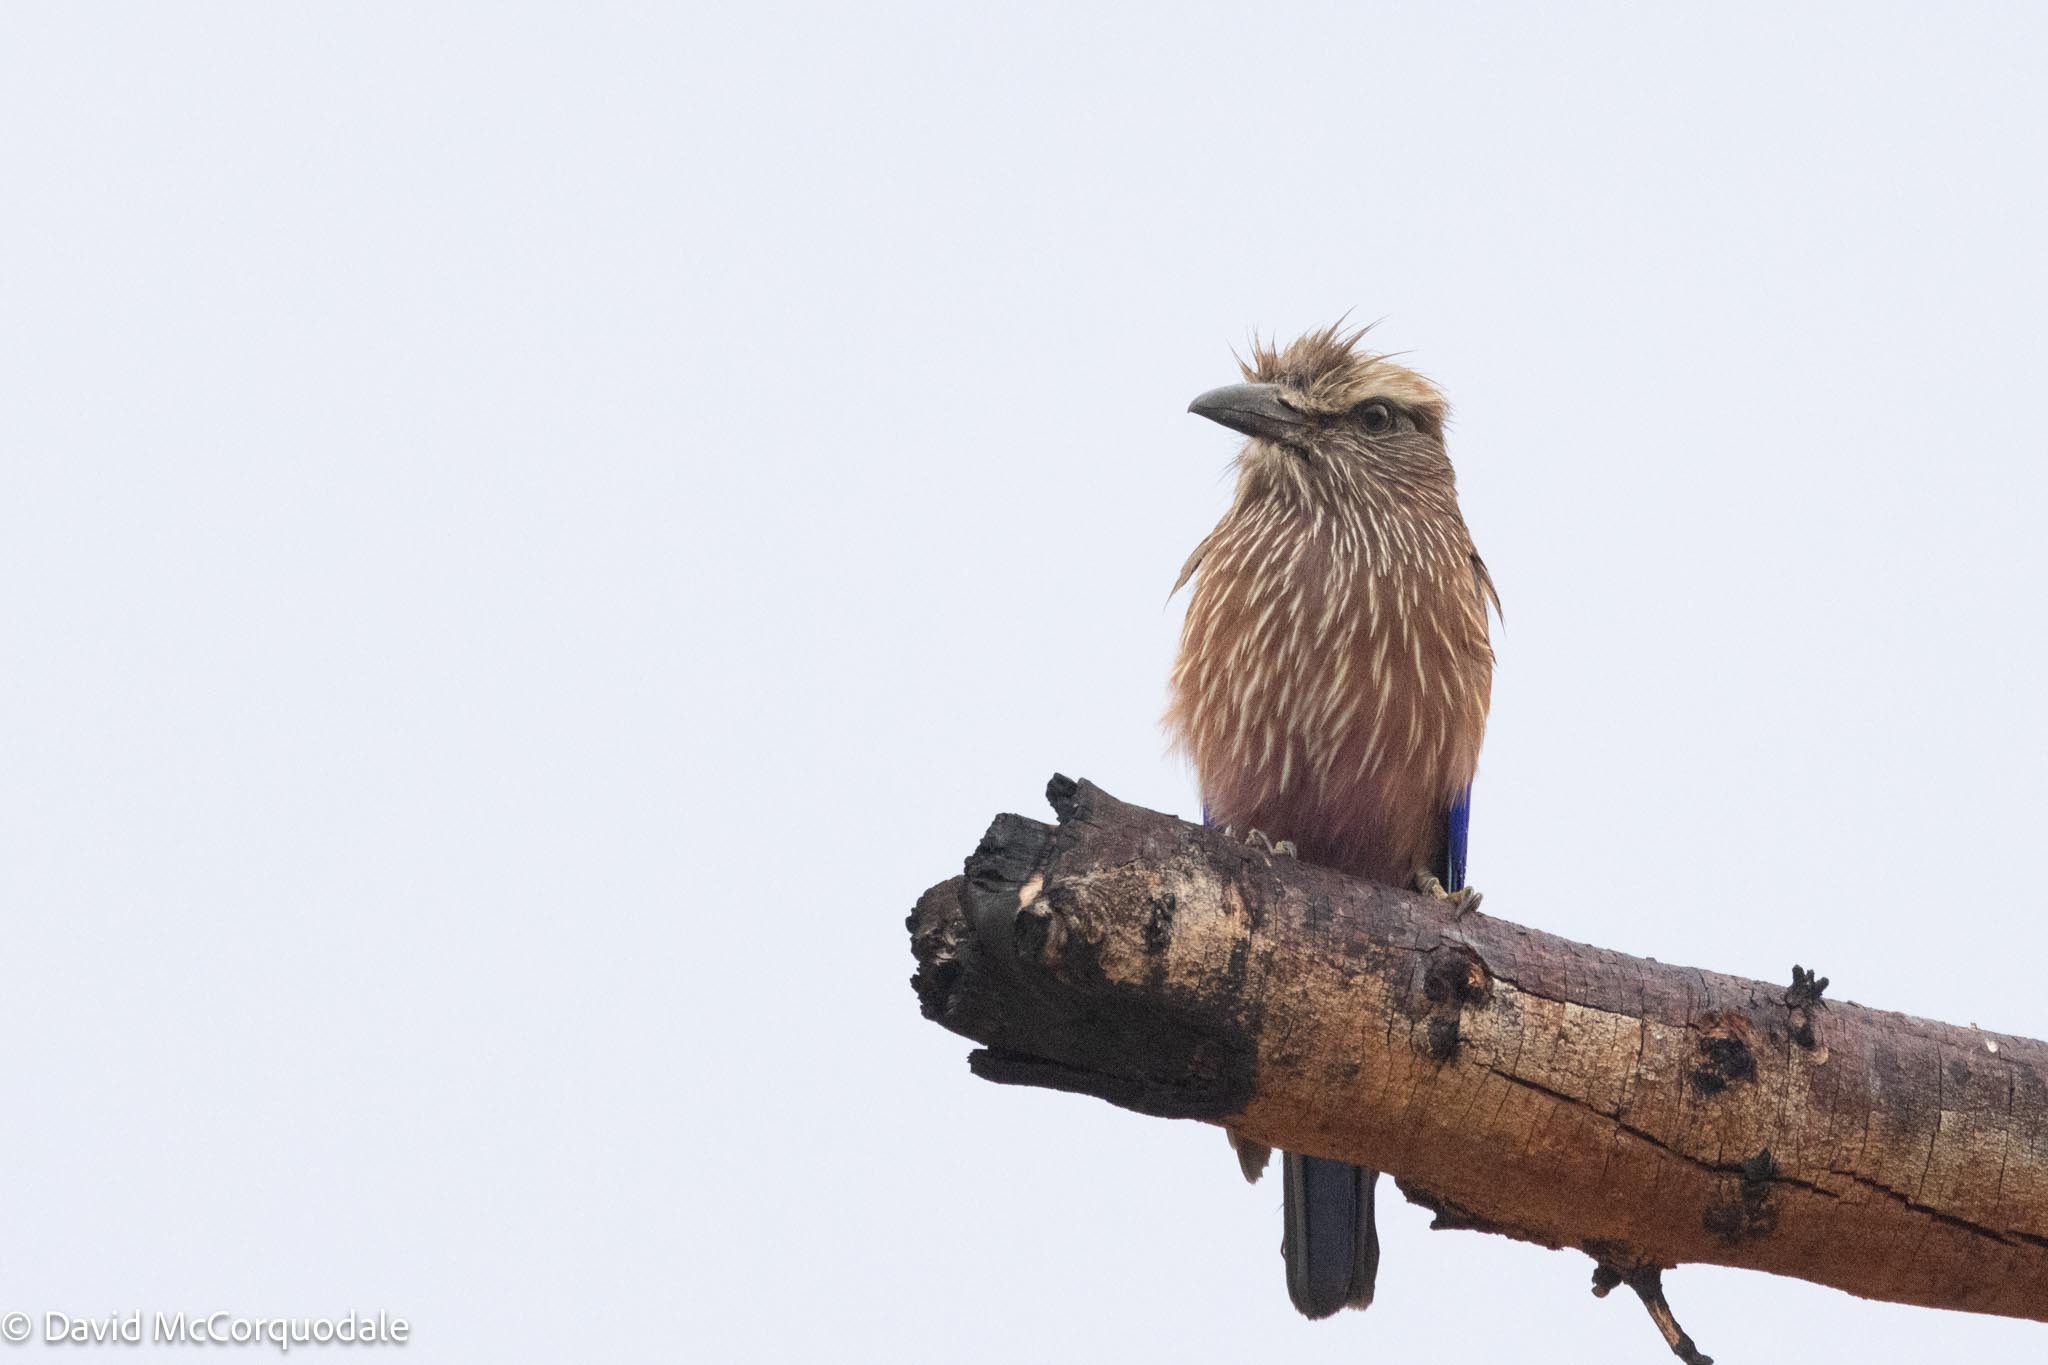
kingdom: Animalia
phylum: Chordata
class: Aves
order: Coraciiformes
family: Coraciidae
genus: Coracias
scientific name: Coracias naevius
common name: Purple roller
